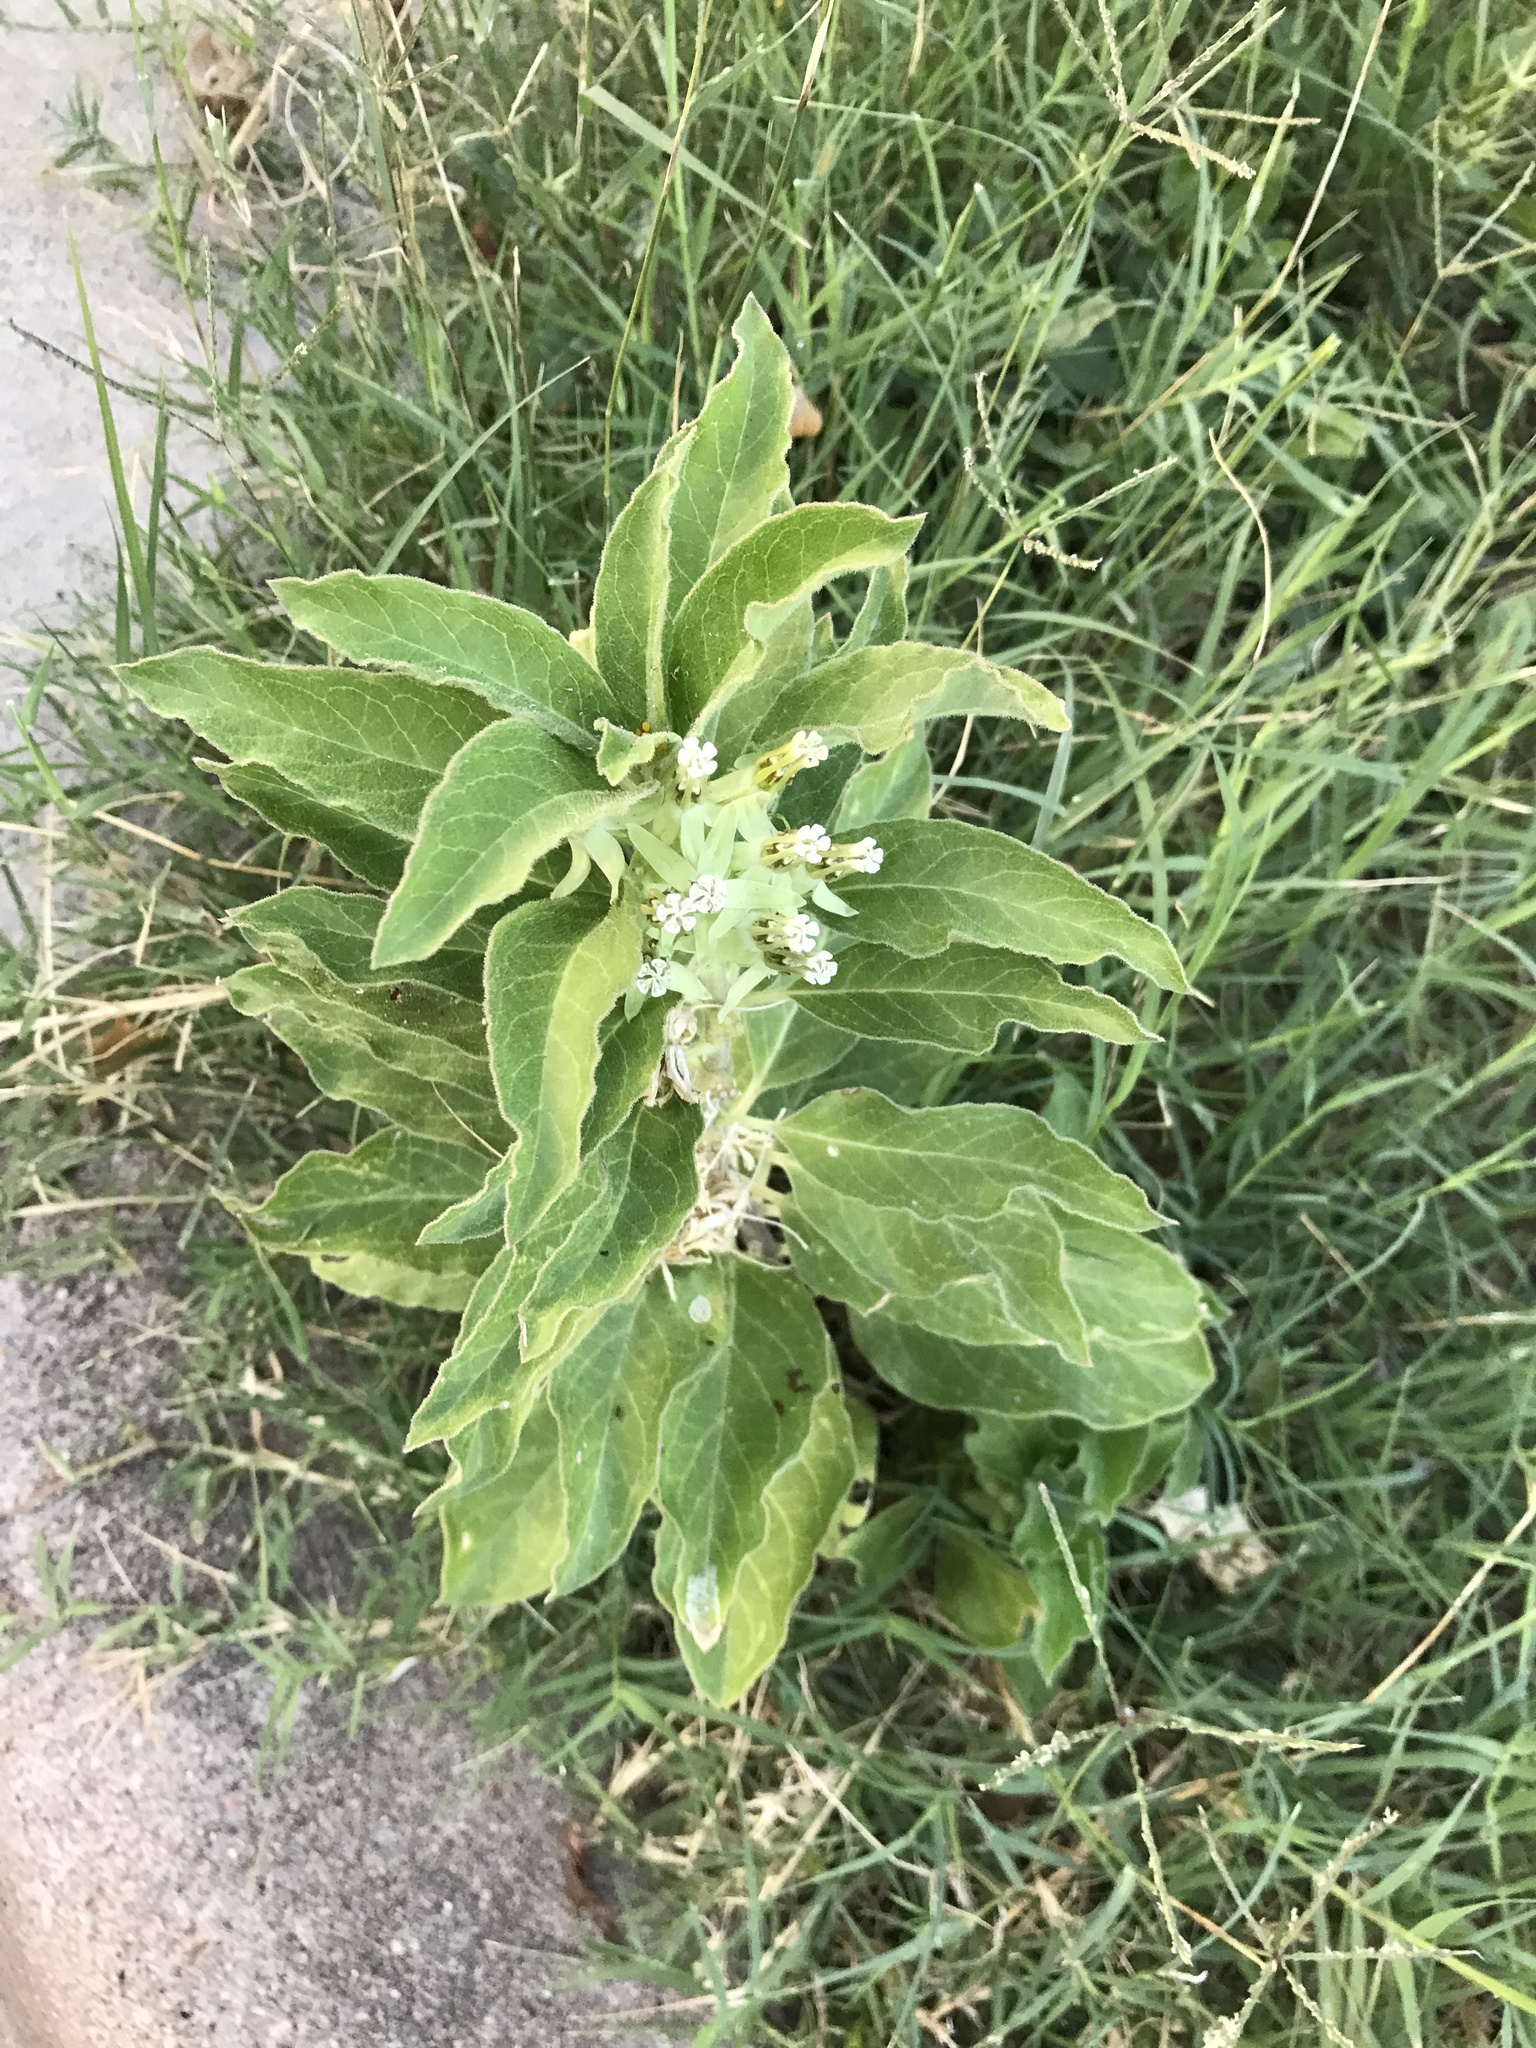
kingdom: Plantae
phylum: Tracheophyta
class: Magnoliopsida
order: Gentianales
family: Apocynaceae
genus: Asclepias
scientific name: Asclepias oenotheroides
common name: Zizotes milkweed
